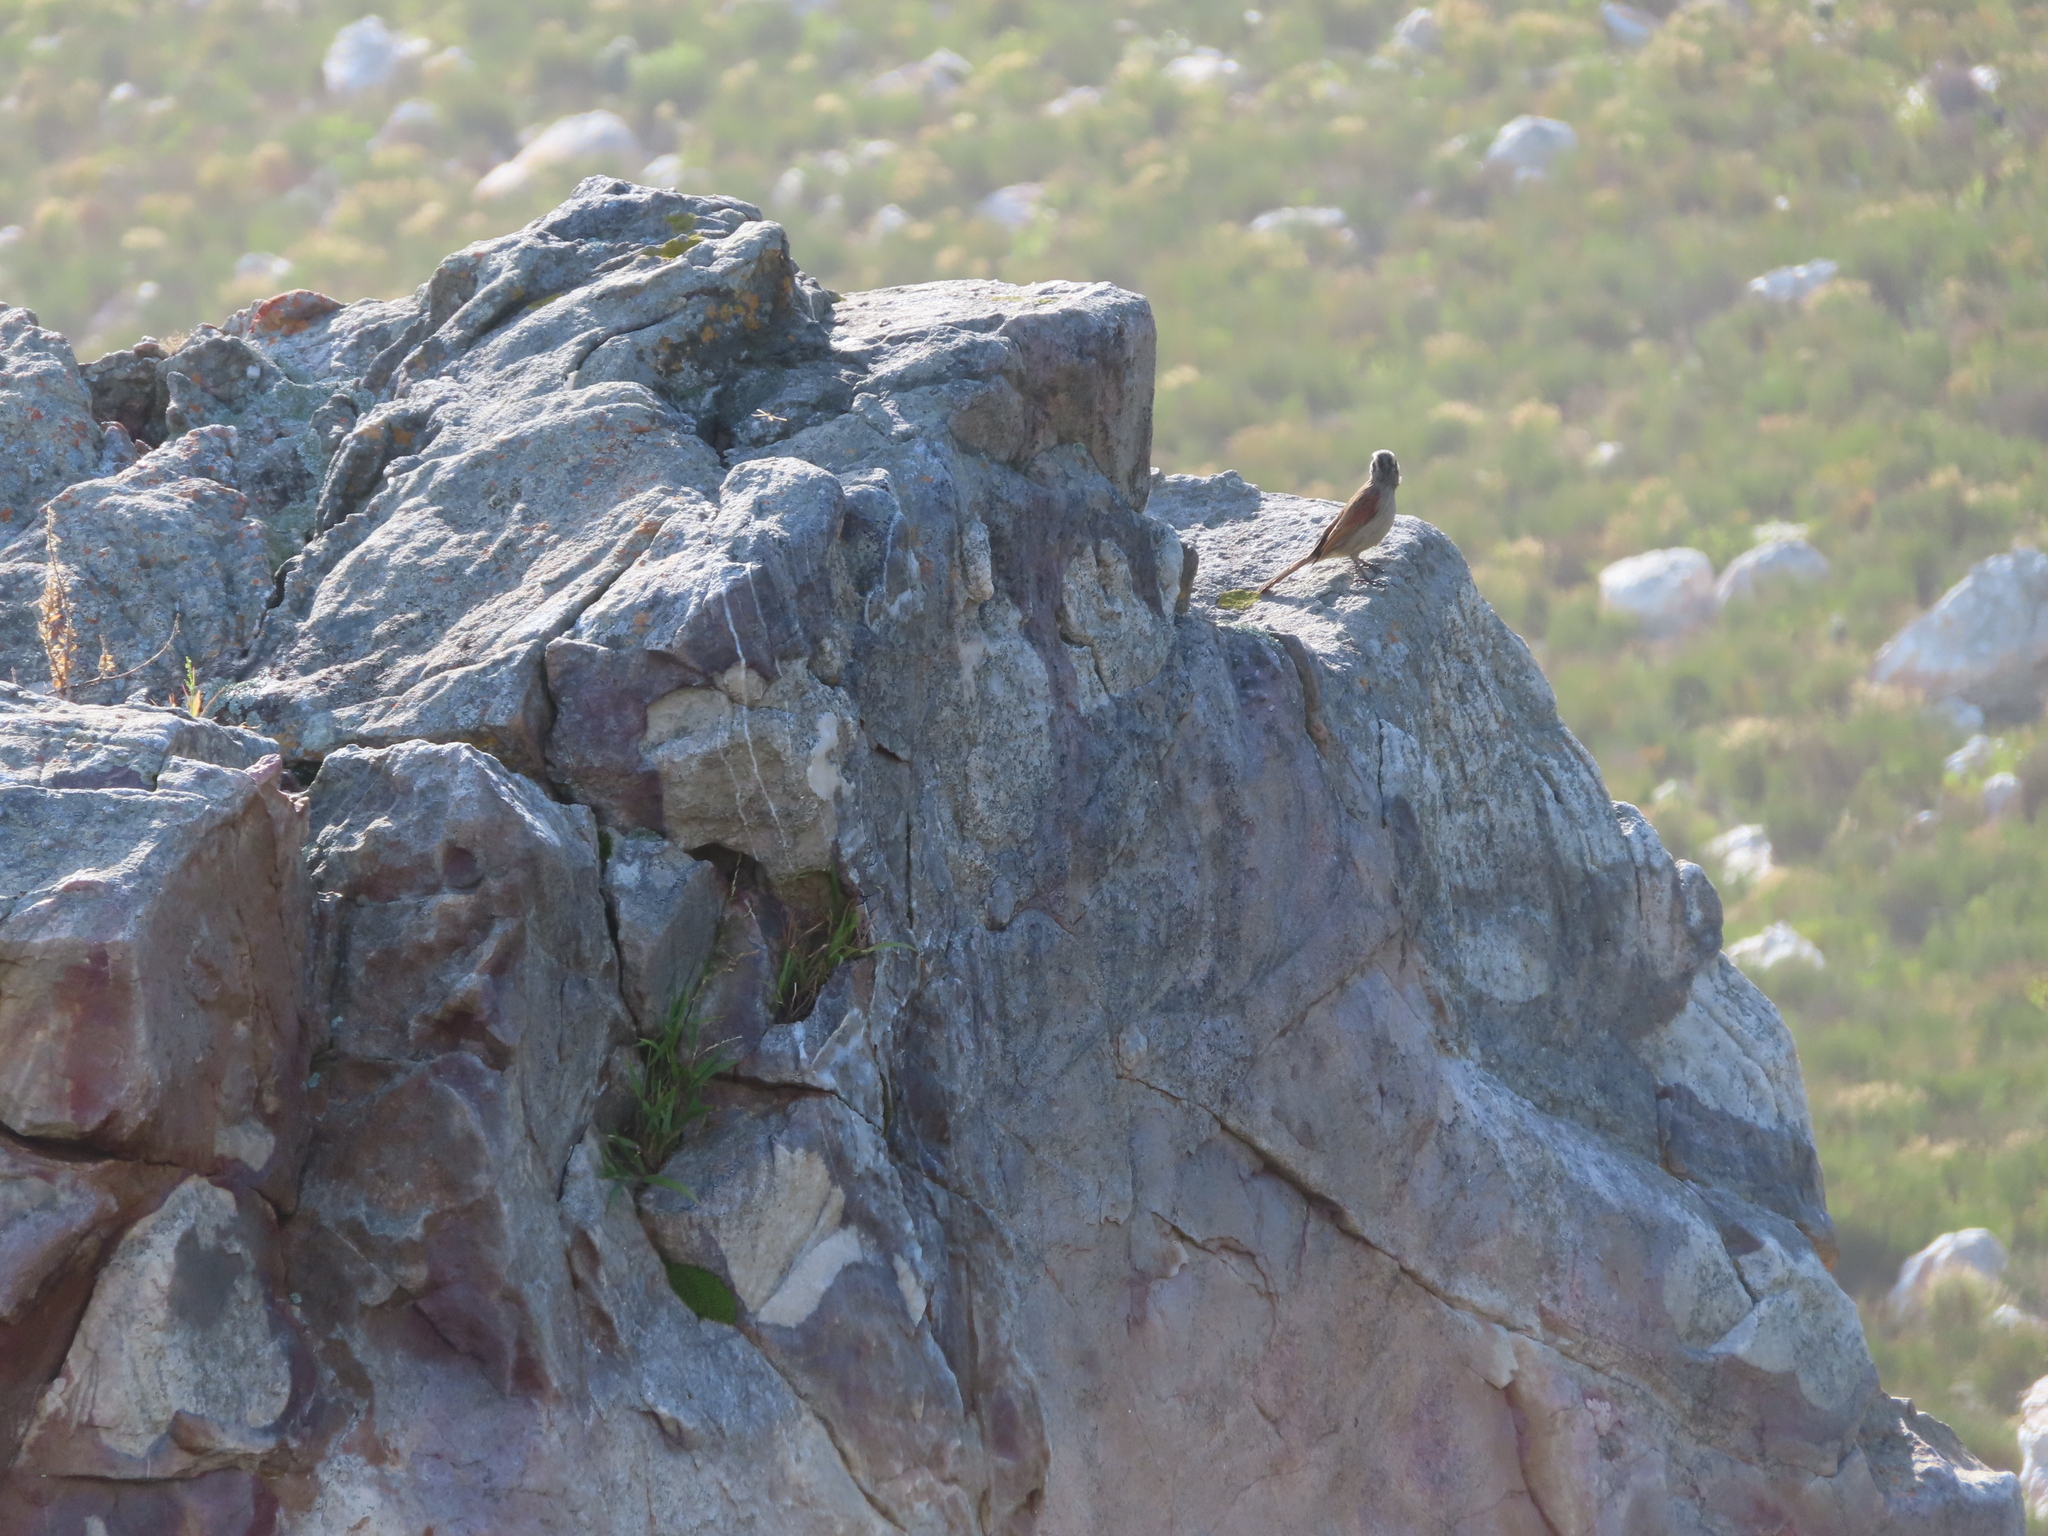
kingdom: Animalia
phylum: Chordata
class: Aves
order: Passeriformes
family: Emberizidae
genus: Emberiza
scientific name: Emberiza capensis
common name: Cape bunting
